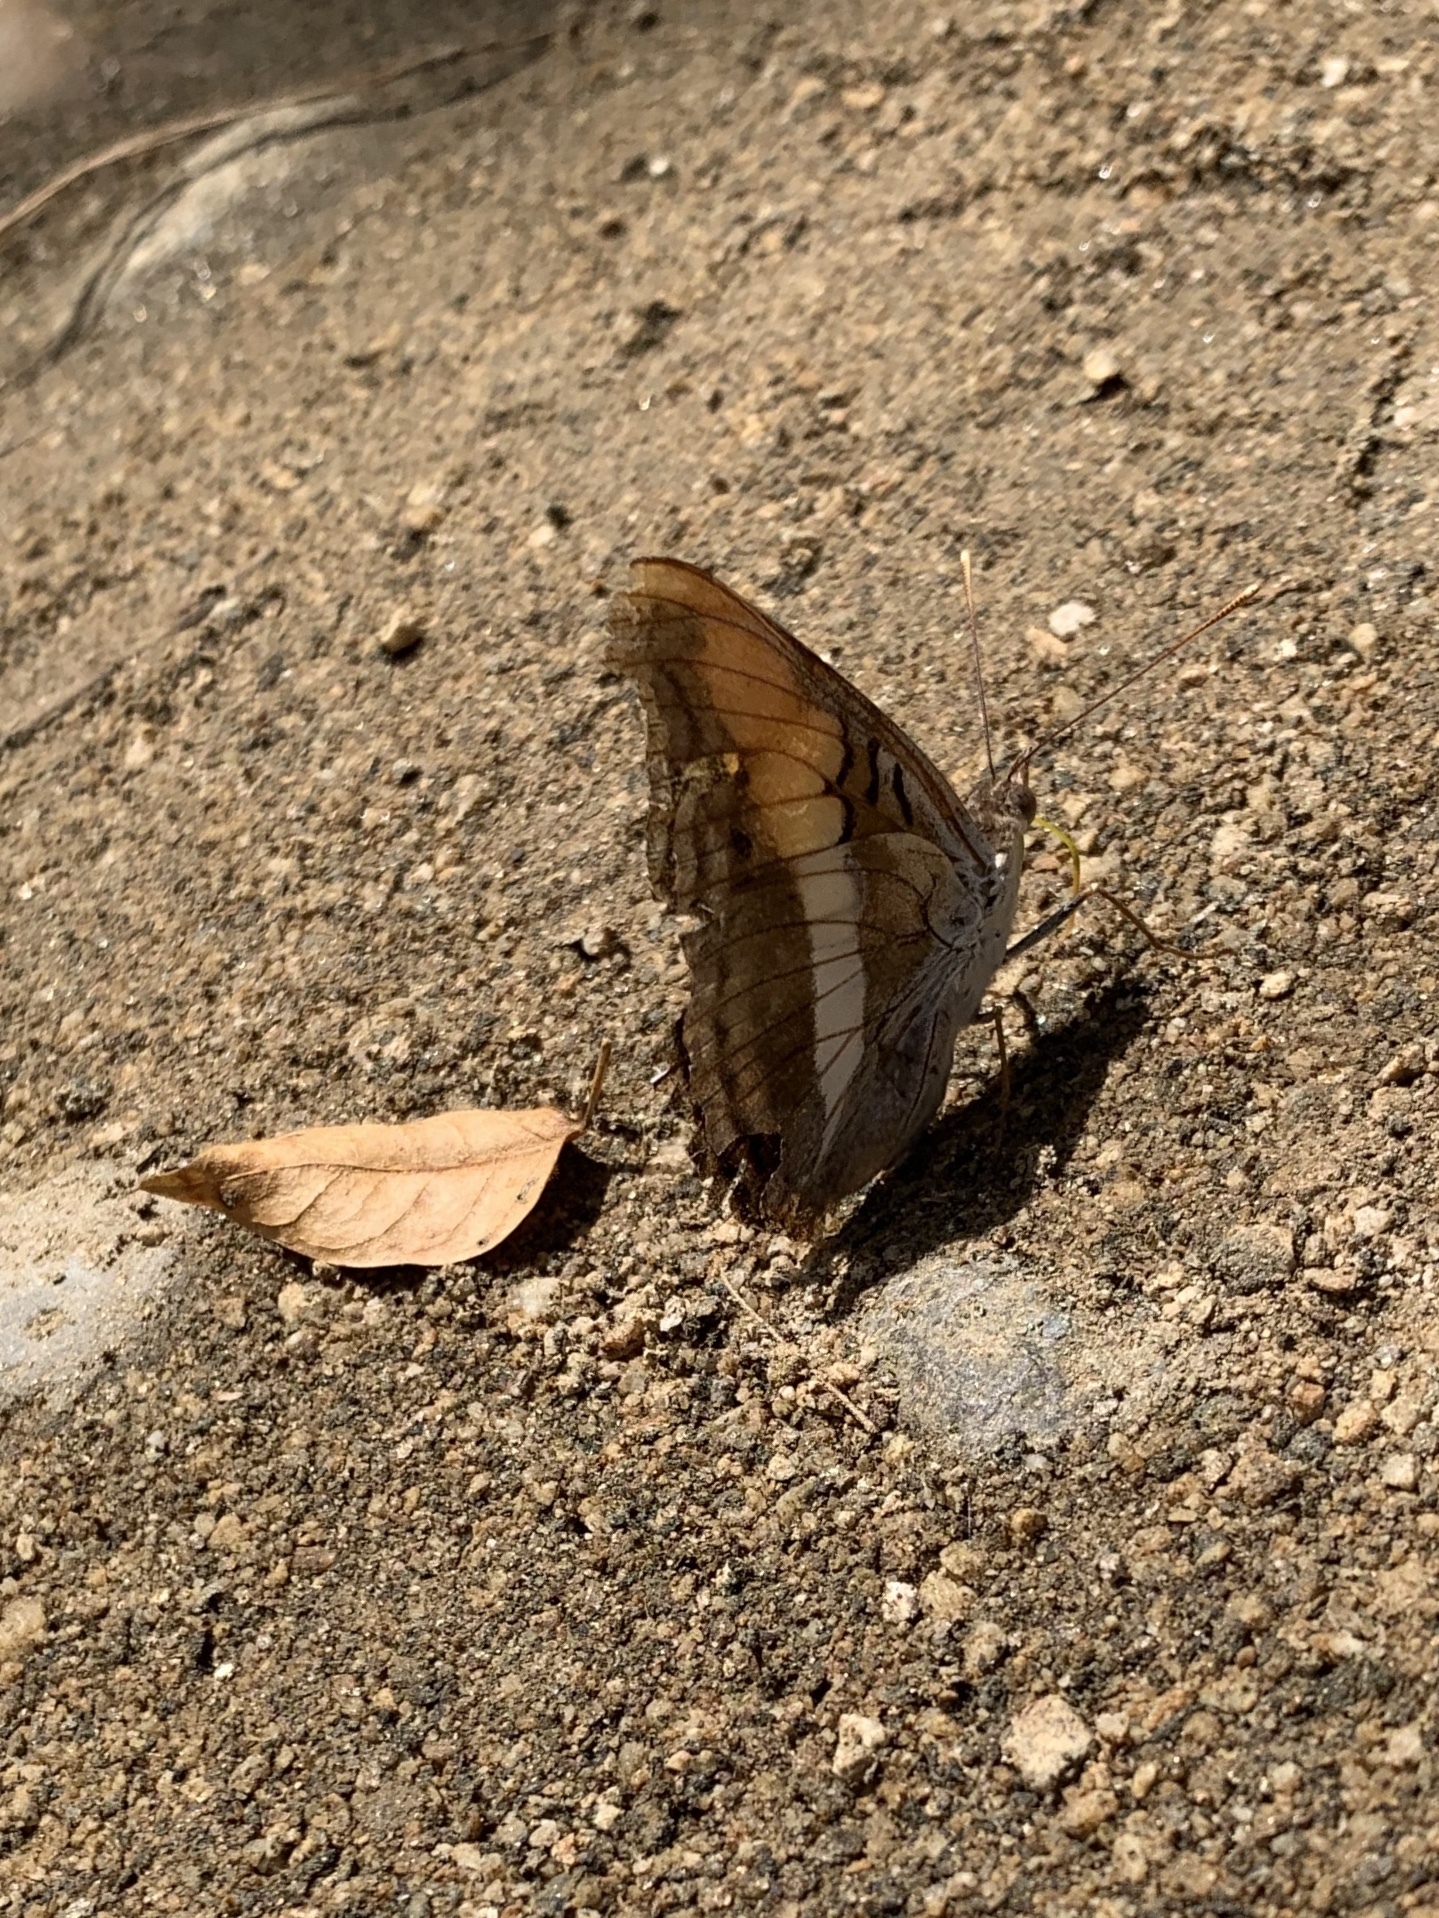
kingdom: Animalia
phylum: Arthropoda
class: Insecta
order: Lepidoptera
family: Nymphalidae
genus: Doxocopa
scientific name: Doxocopa laure
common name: Silver emperor
